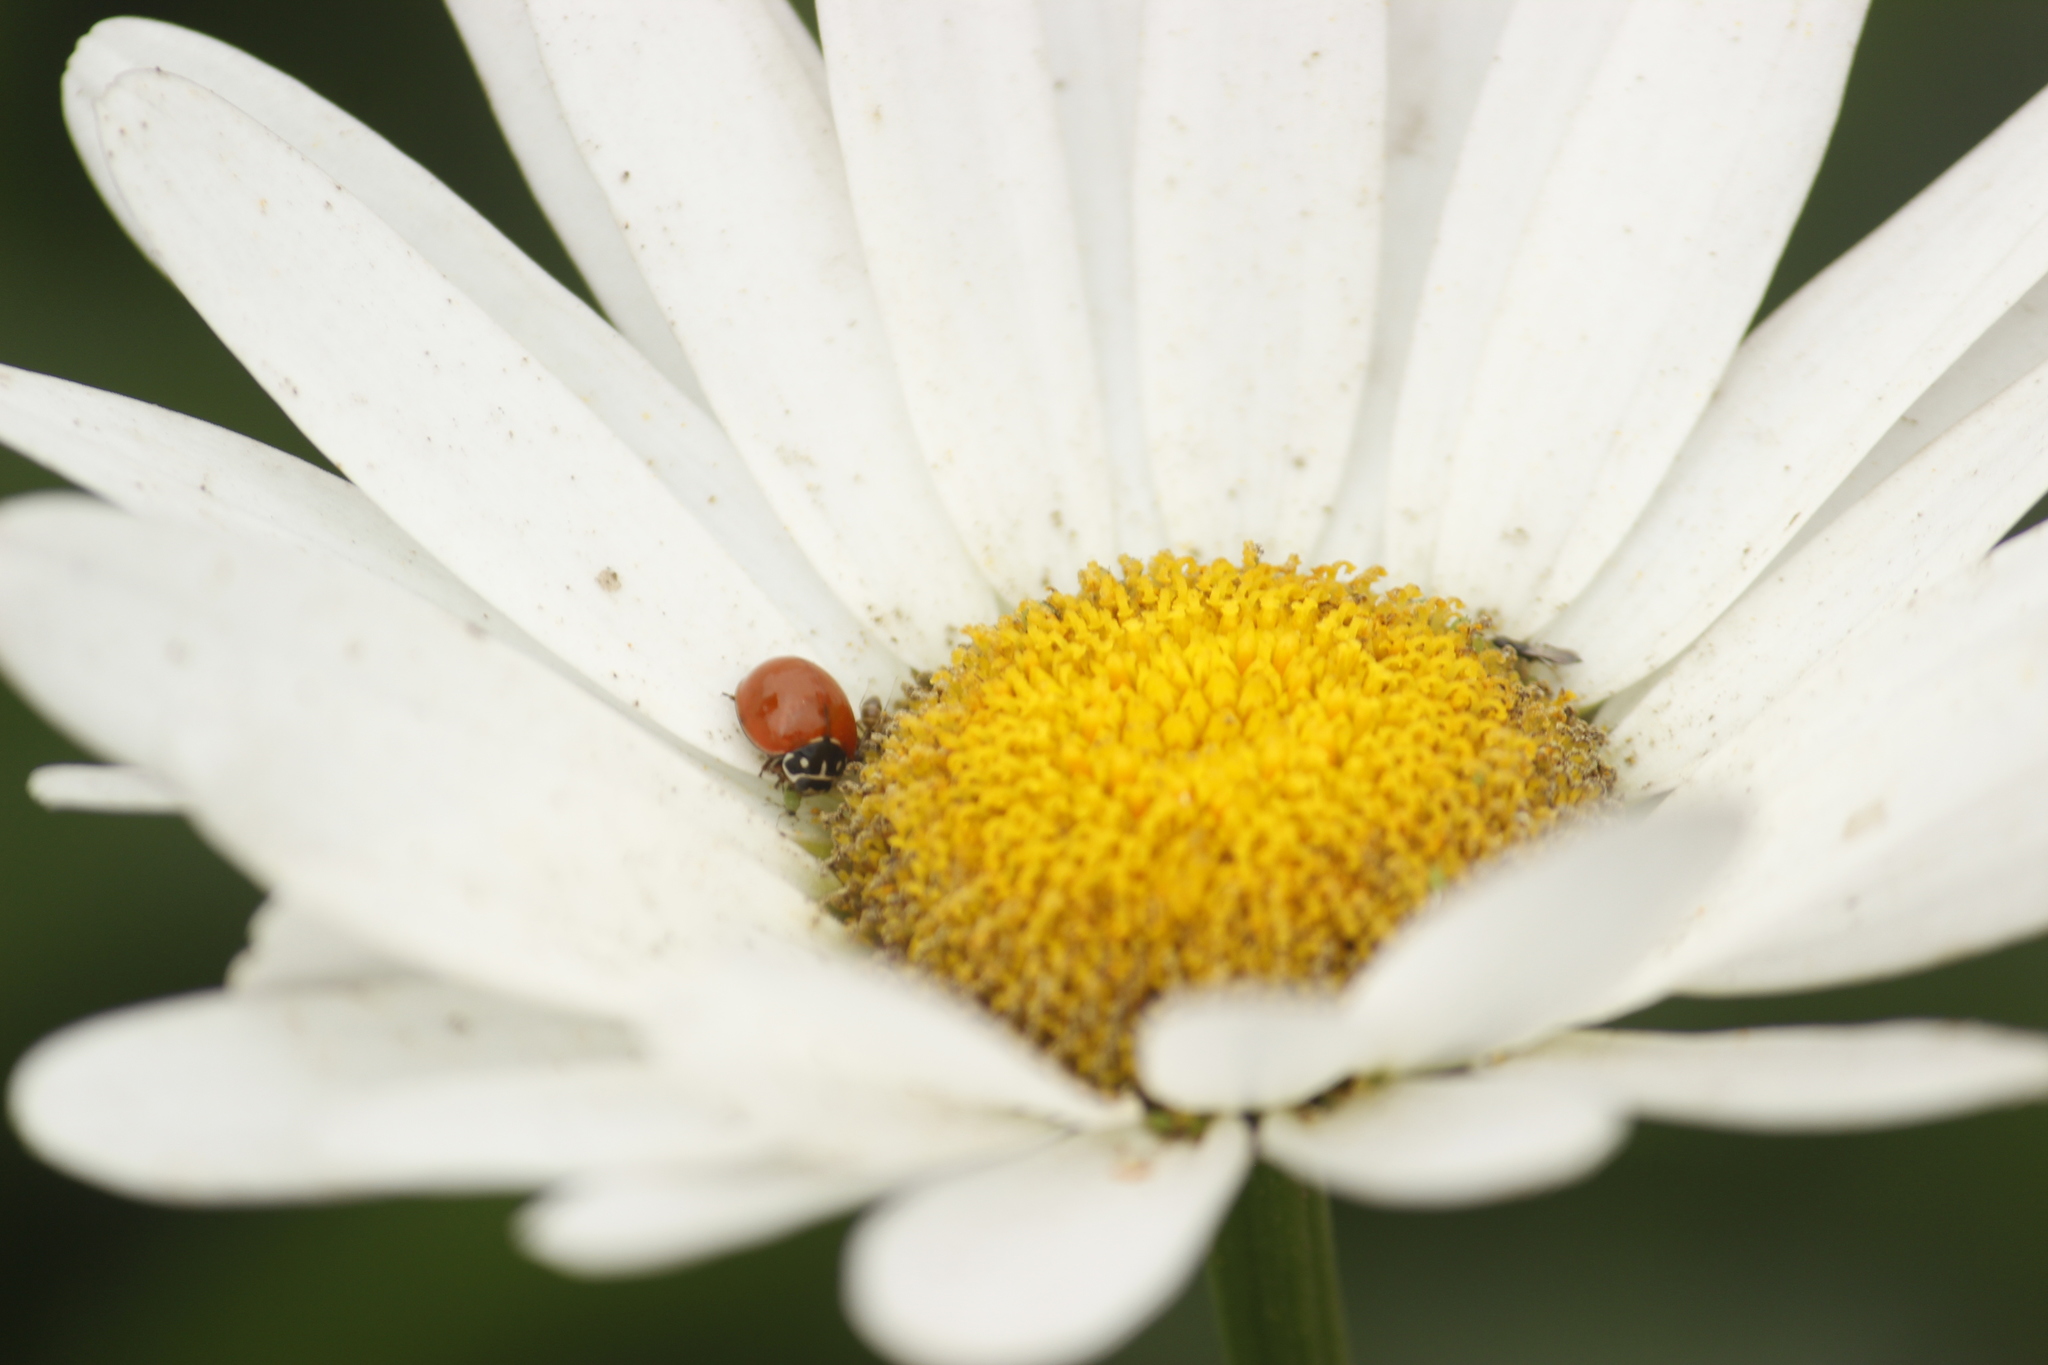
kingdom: Animalia
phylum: Arthropoda
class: Insecta
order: Coleoptera
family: Coccinellidae
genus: Cycloneda
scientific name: Cycloneda sanguinea
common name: Ladybird beetle
